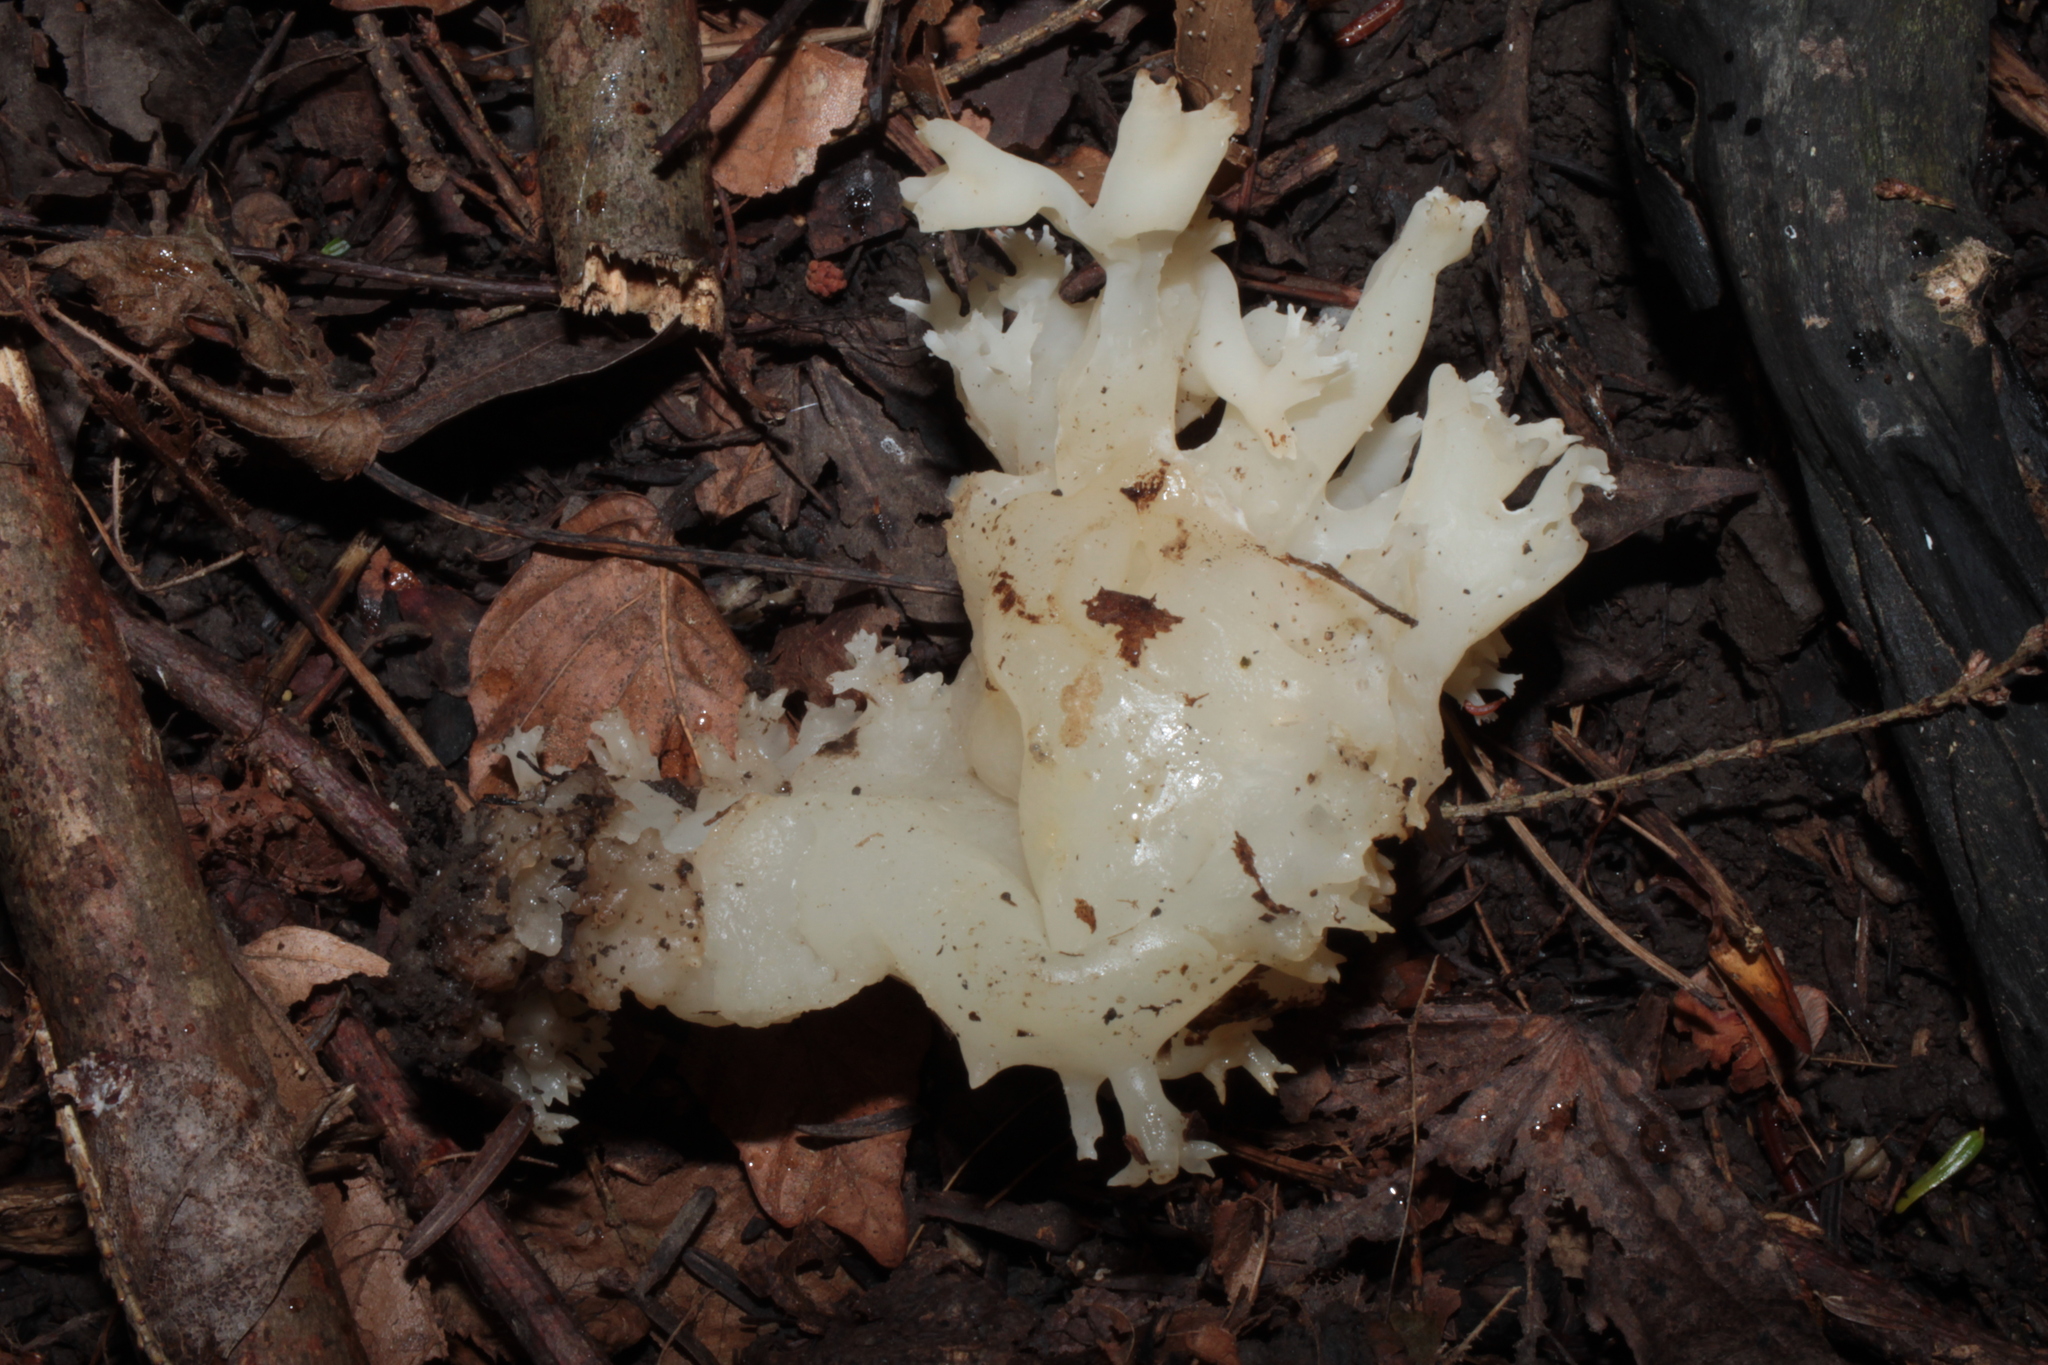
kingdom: Fungi
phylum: Basidiomycota
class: Agaricomycetes
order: Sebacinales
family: Sebacinaceae
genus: Sebacina
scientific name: Sebacina sparassoidea
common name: White coral jelly fungus
